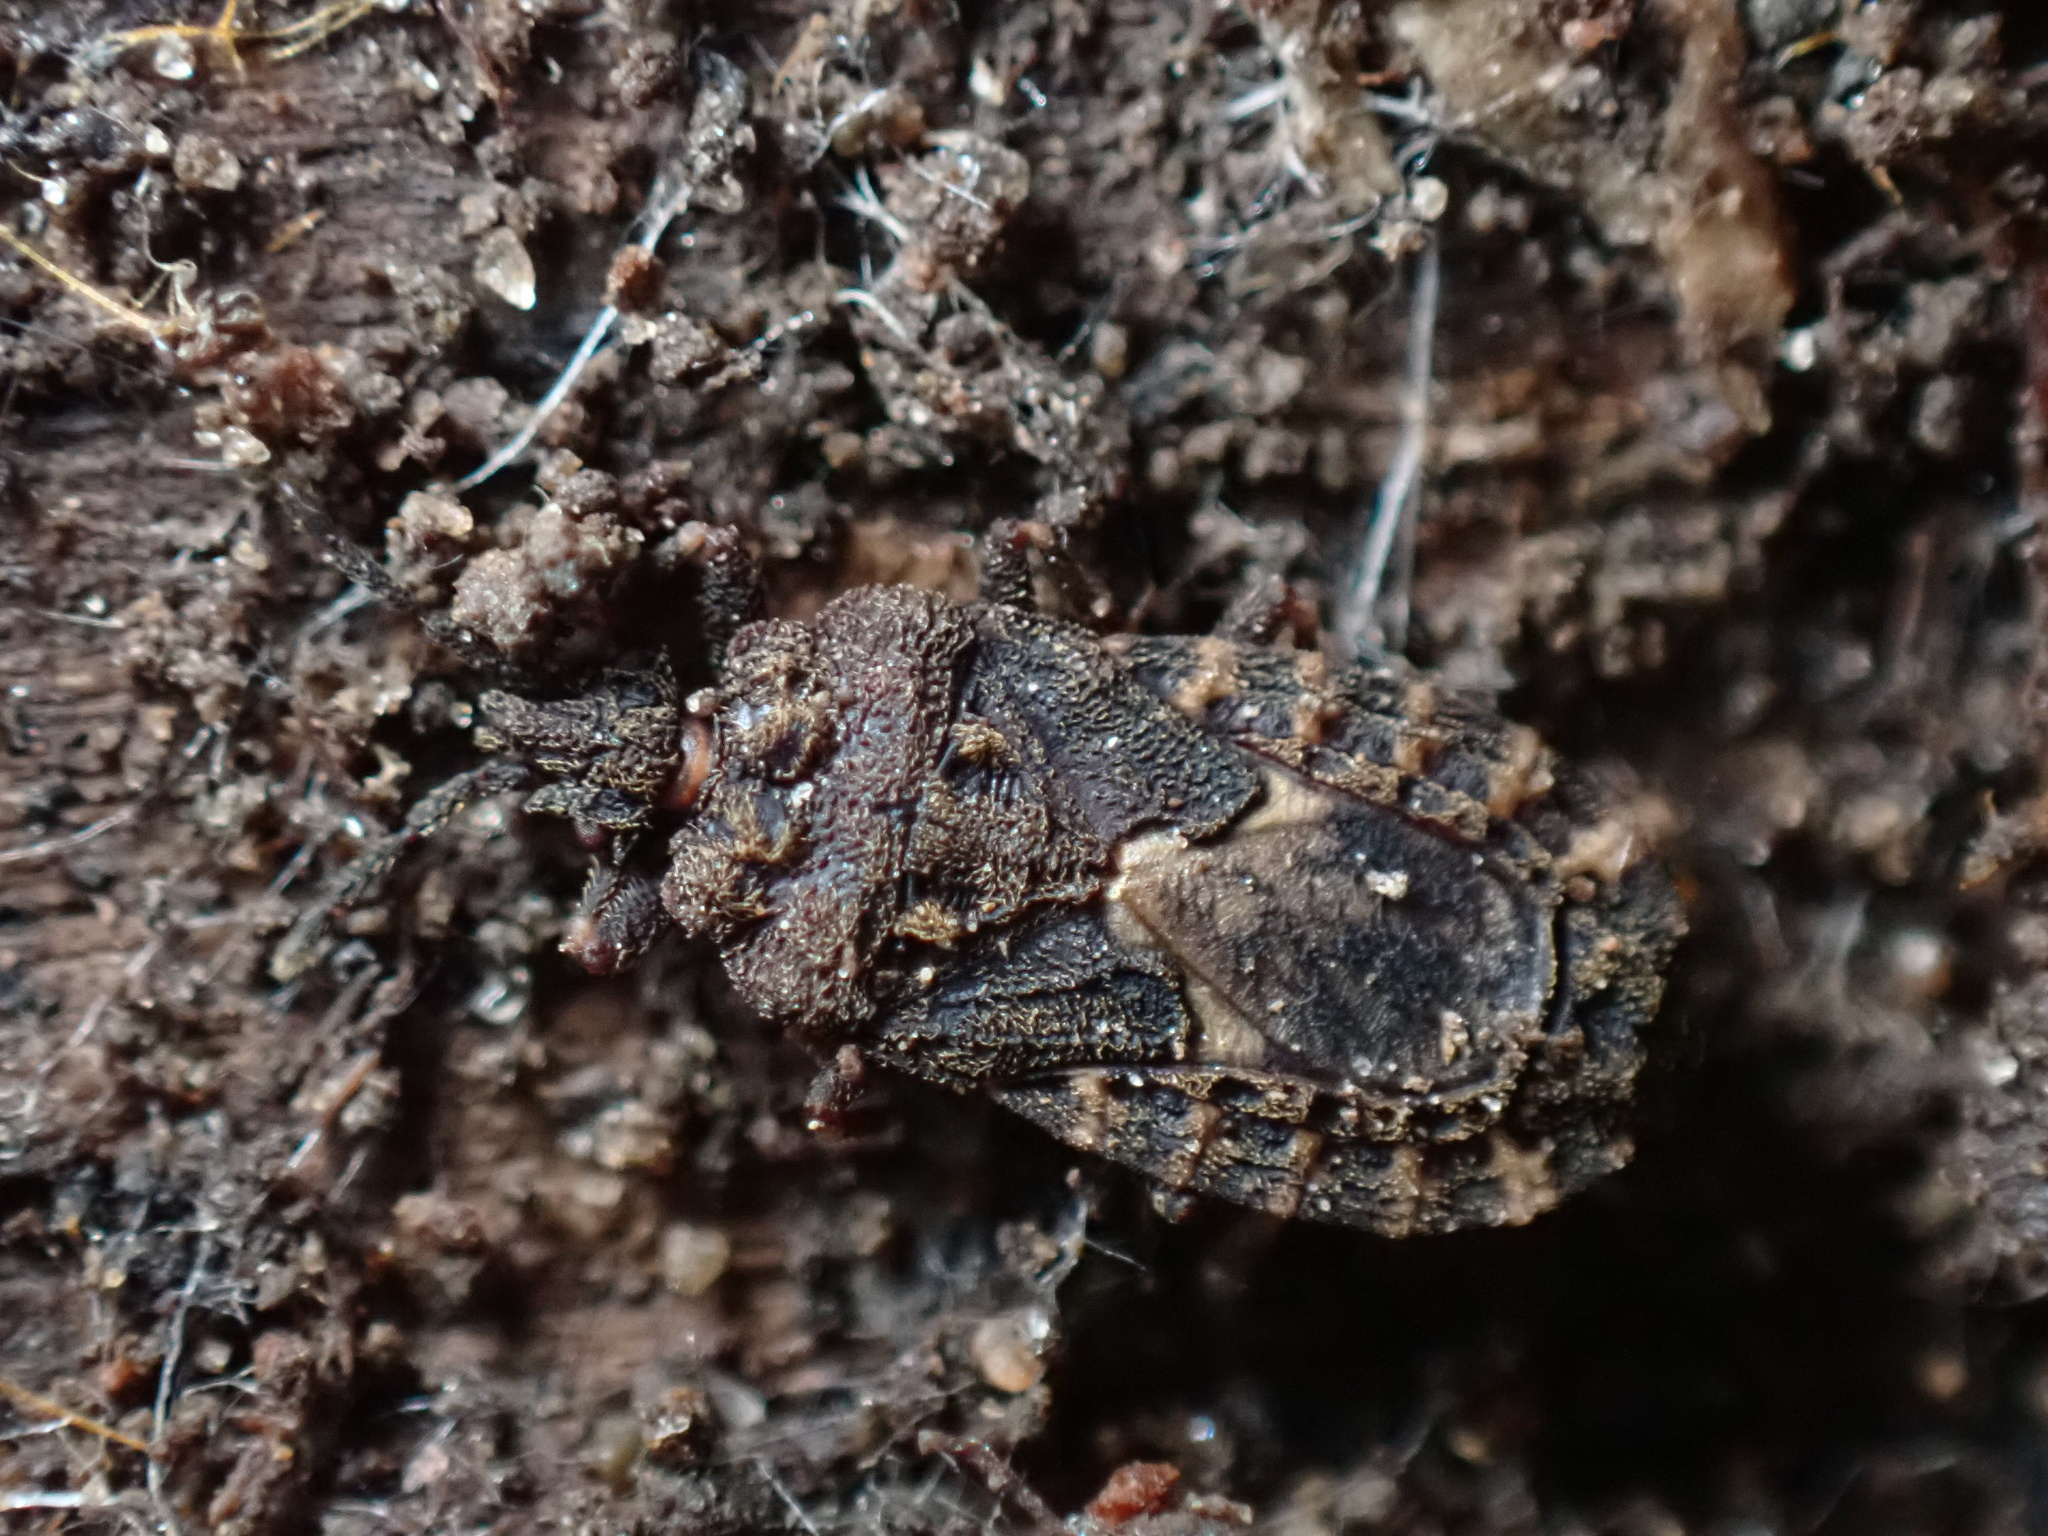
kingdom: Animalia
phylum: Arthropoda
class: Insecta
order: Hemiptera
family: Aradidae
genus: Mezira
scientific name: Mezira
